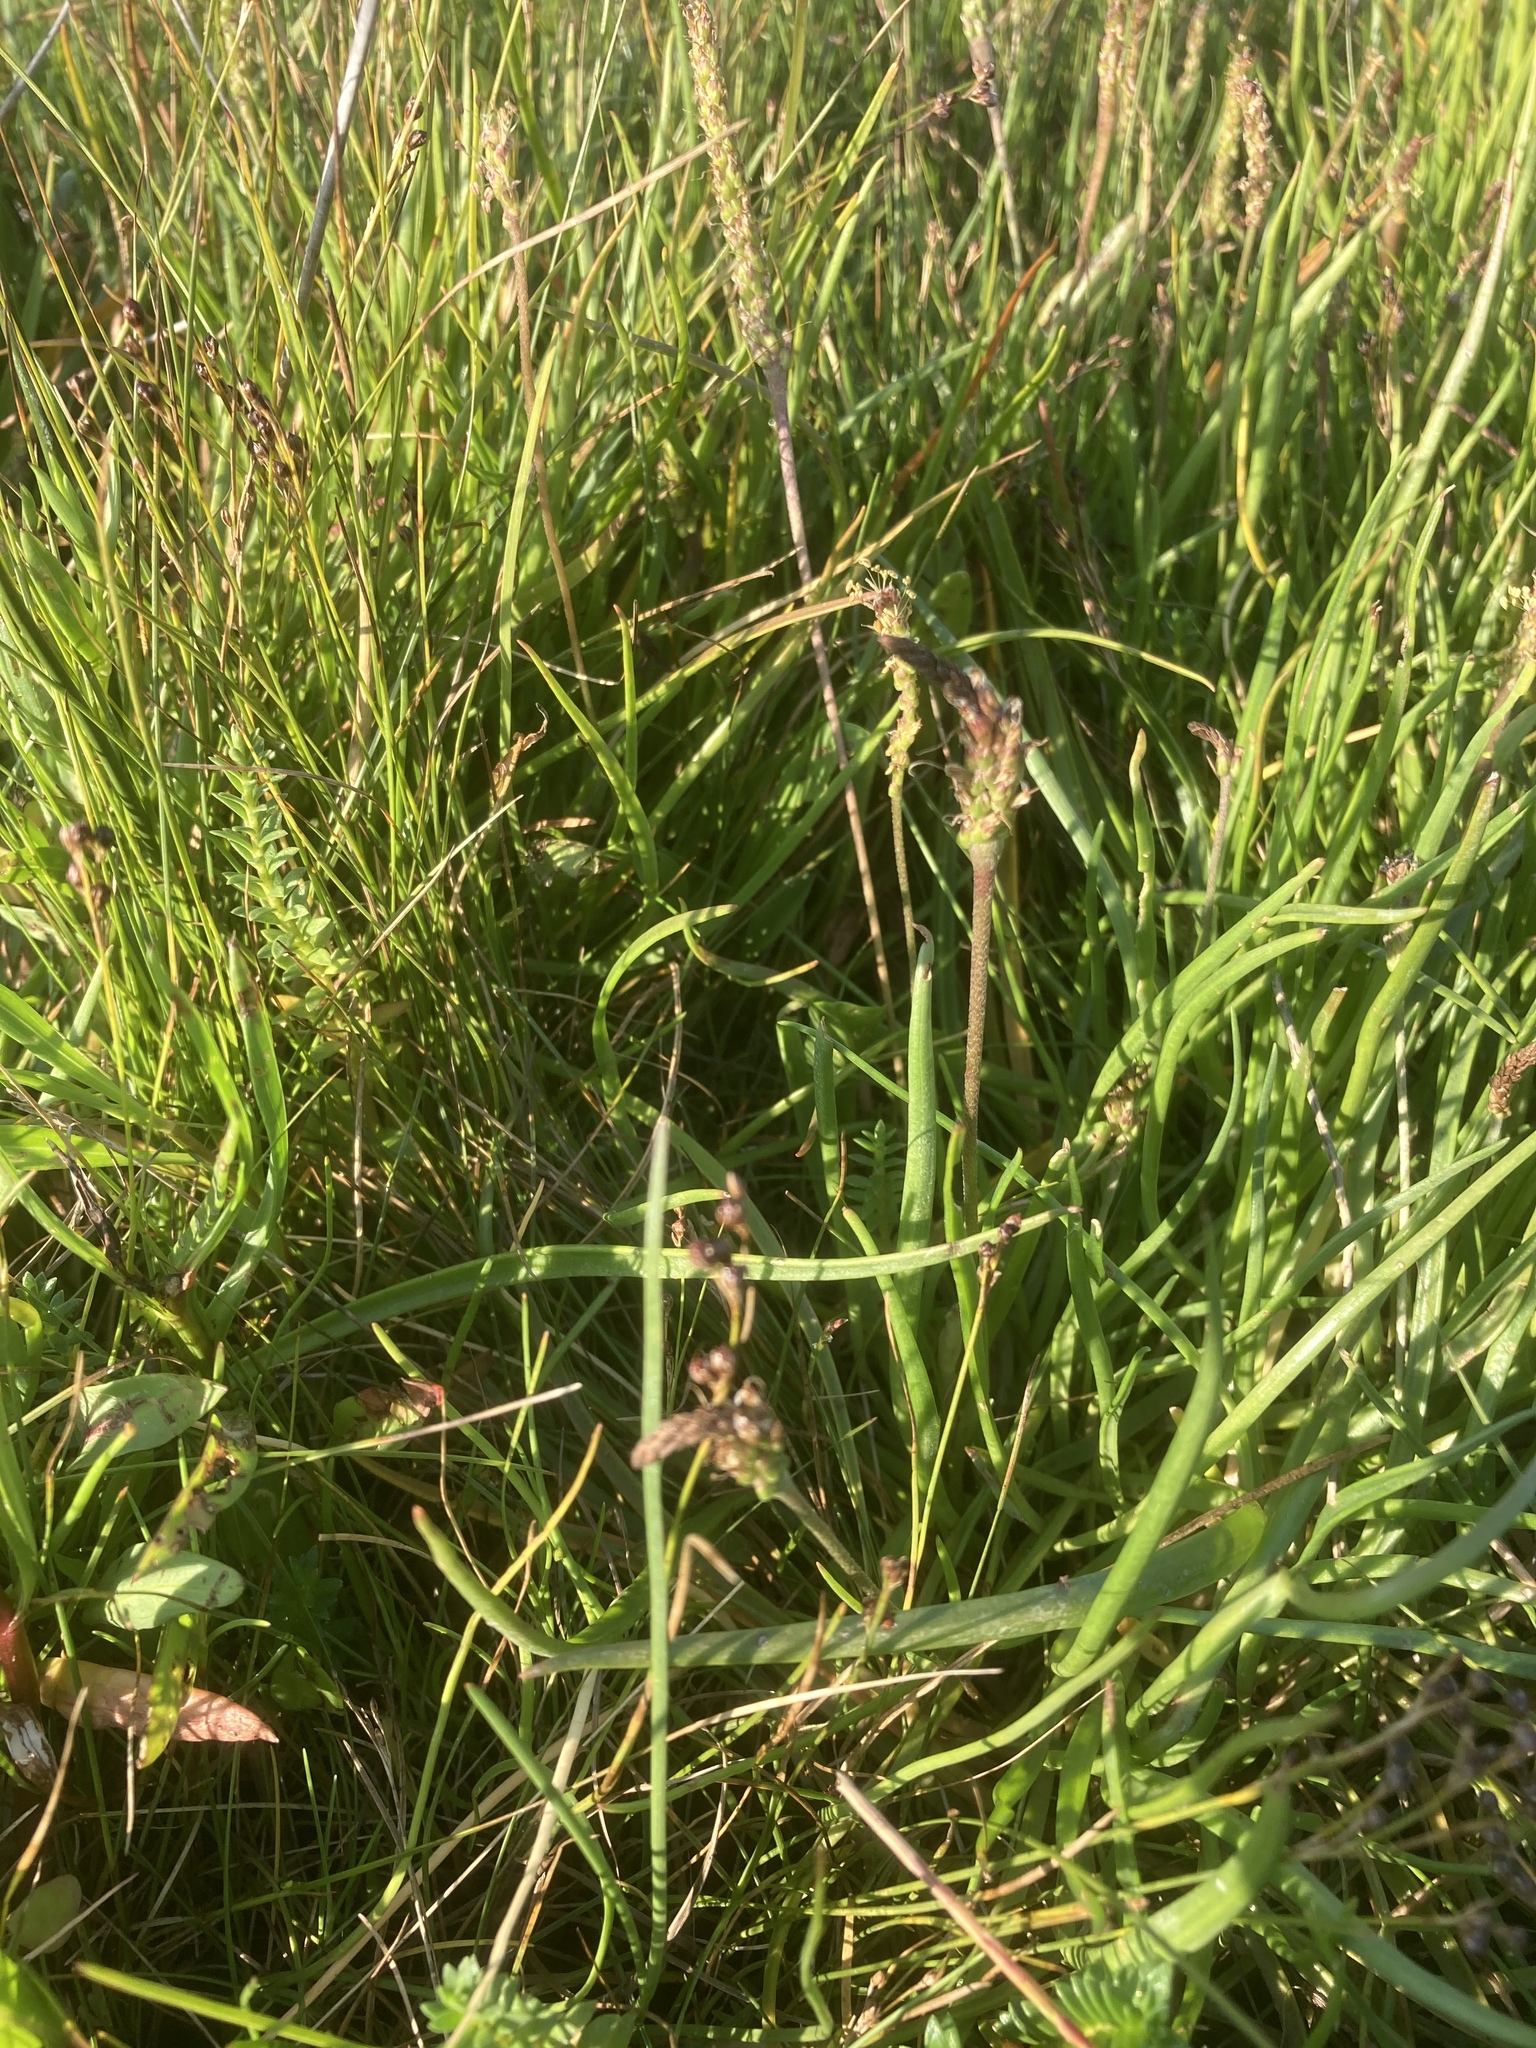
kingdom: Plantae
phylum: Tracheophyta
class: Magnoliopsida
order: Lamiales
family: Plantaginaceae
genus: Plantago
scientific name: Plantago maritima
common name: Sea plantain
